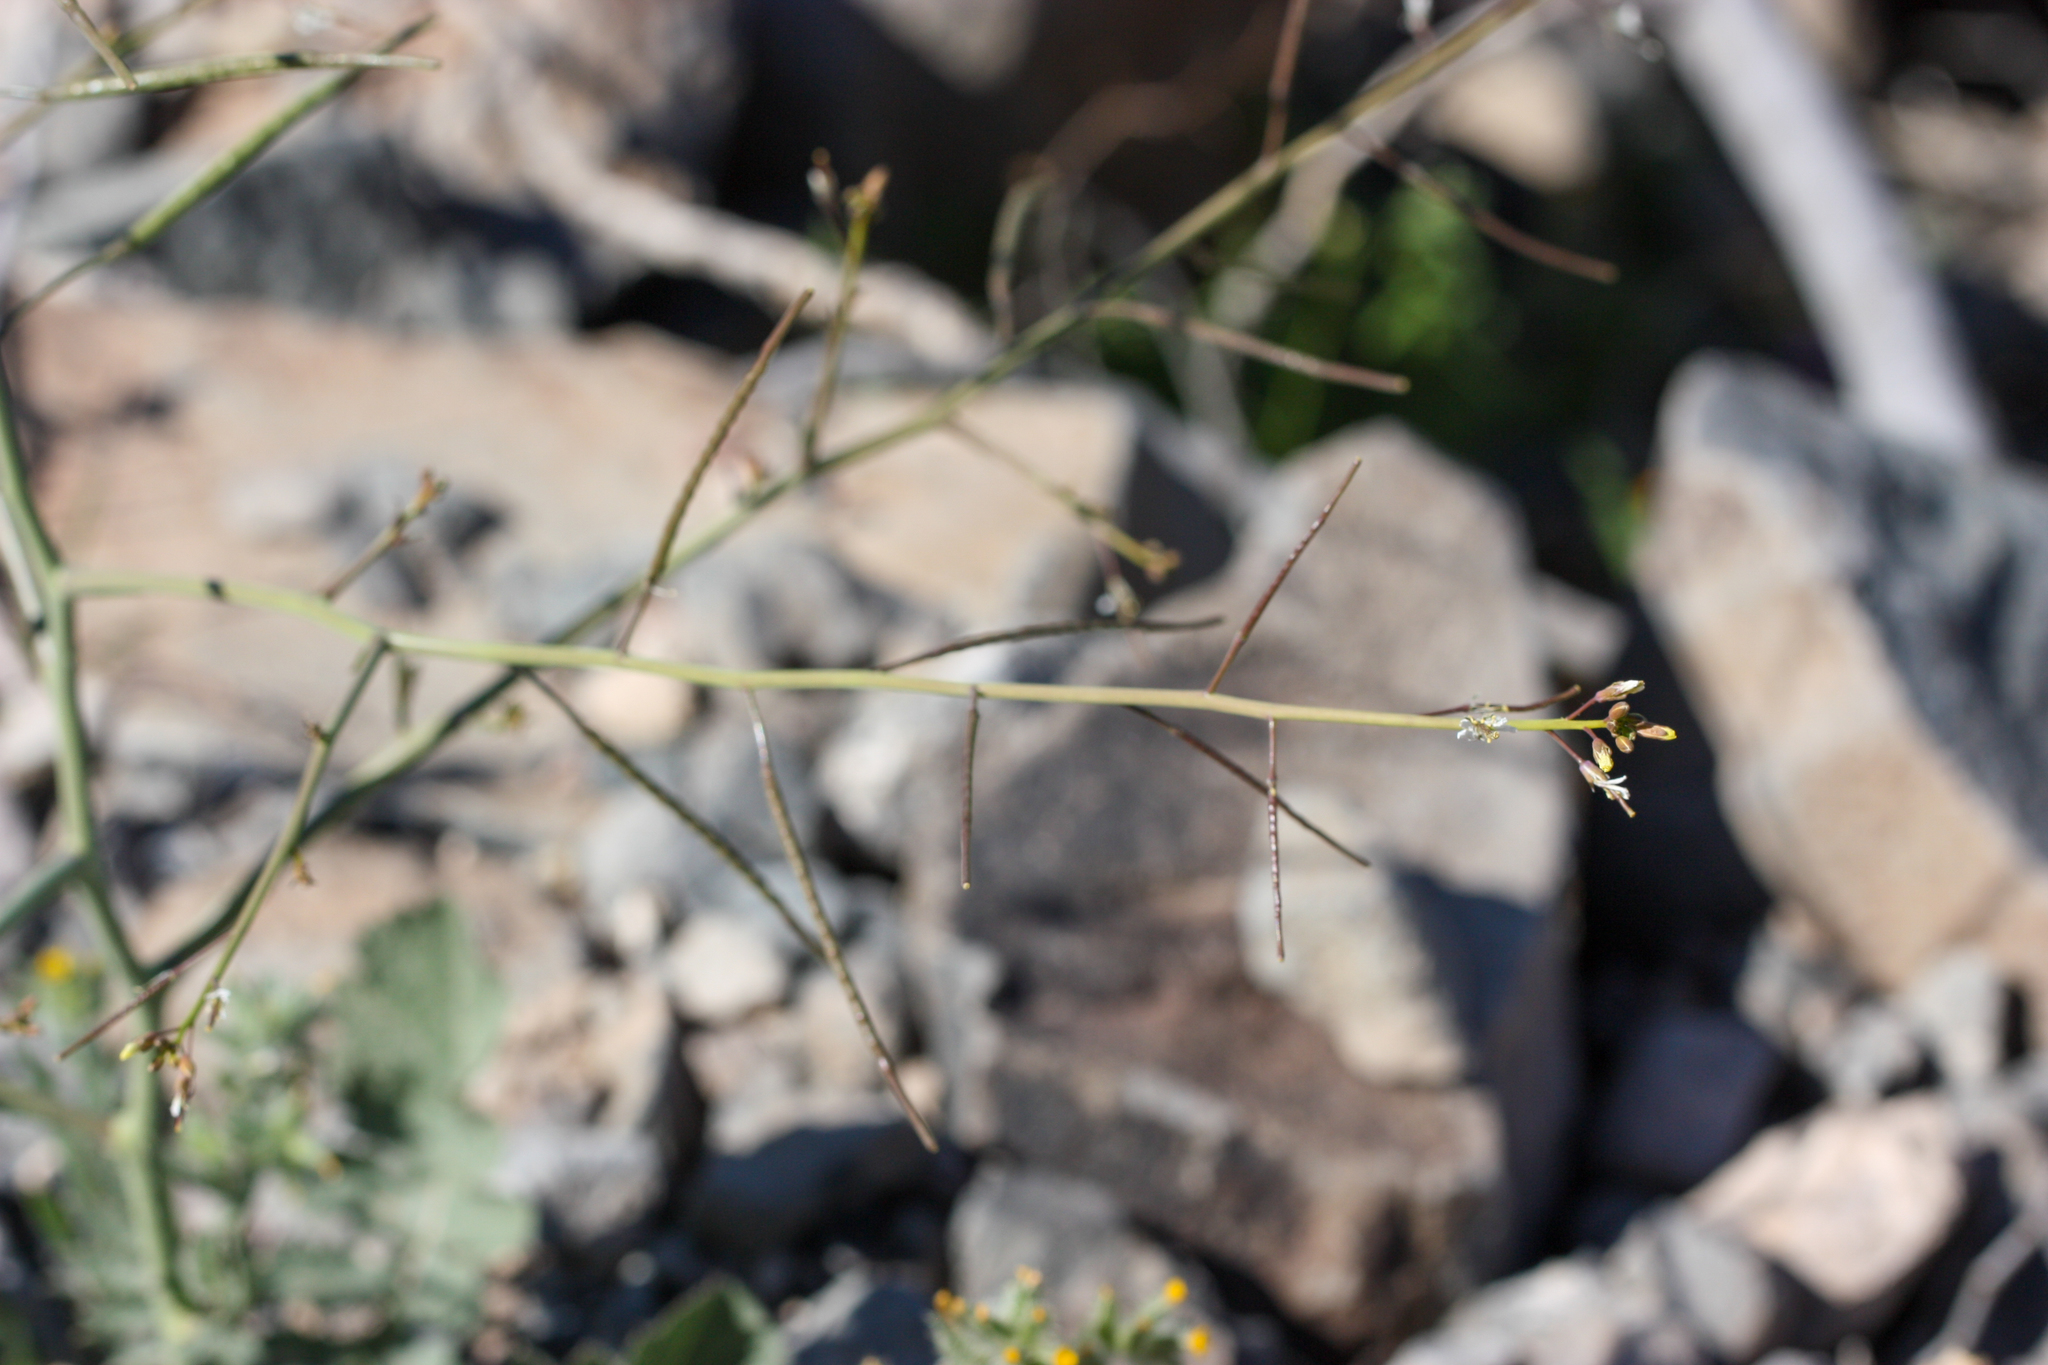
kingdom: Plantae
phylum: Tracheophyta
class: Magnoliopsida
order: Brassicales
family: Brassicaceae
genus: Brassica
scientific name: Brassica tournefortii
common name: Pale cabbage
